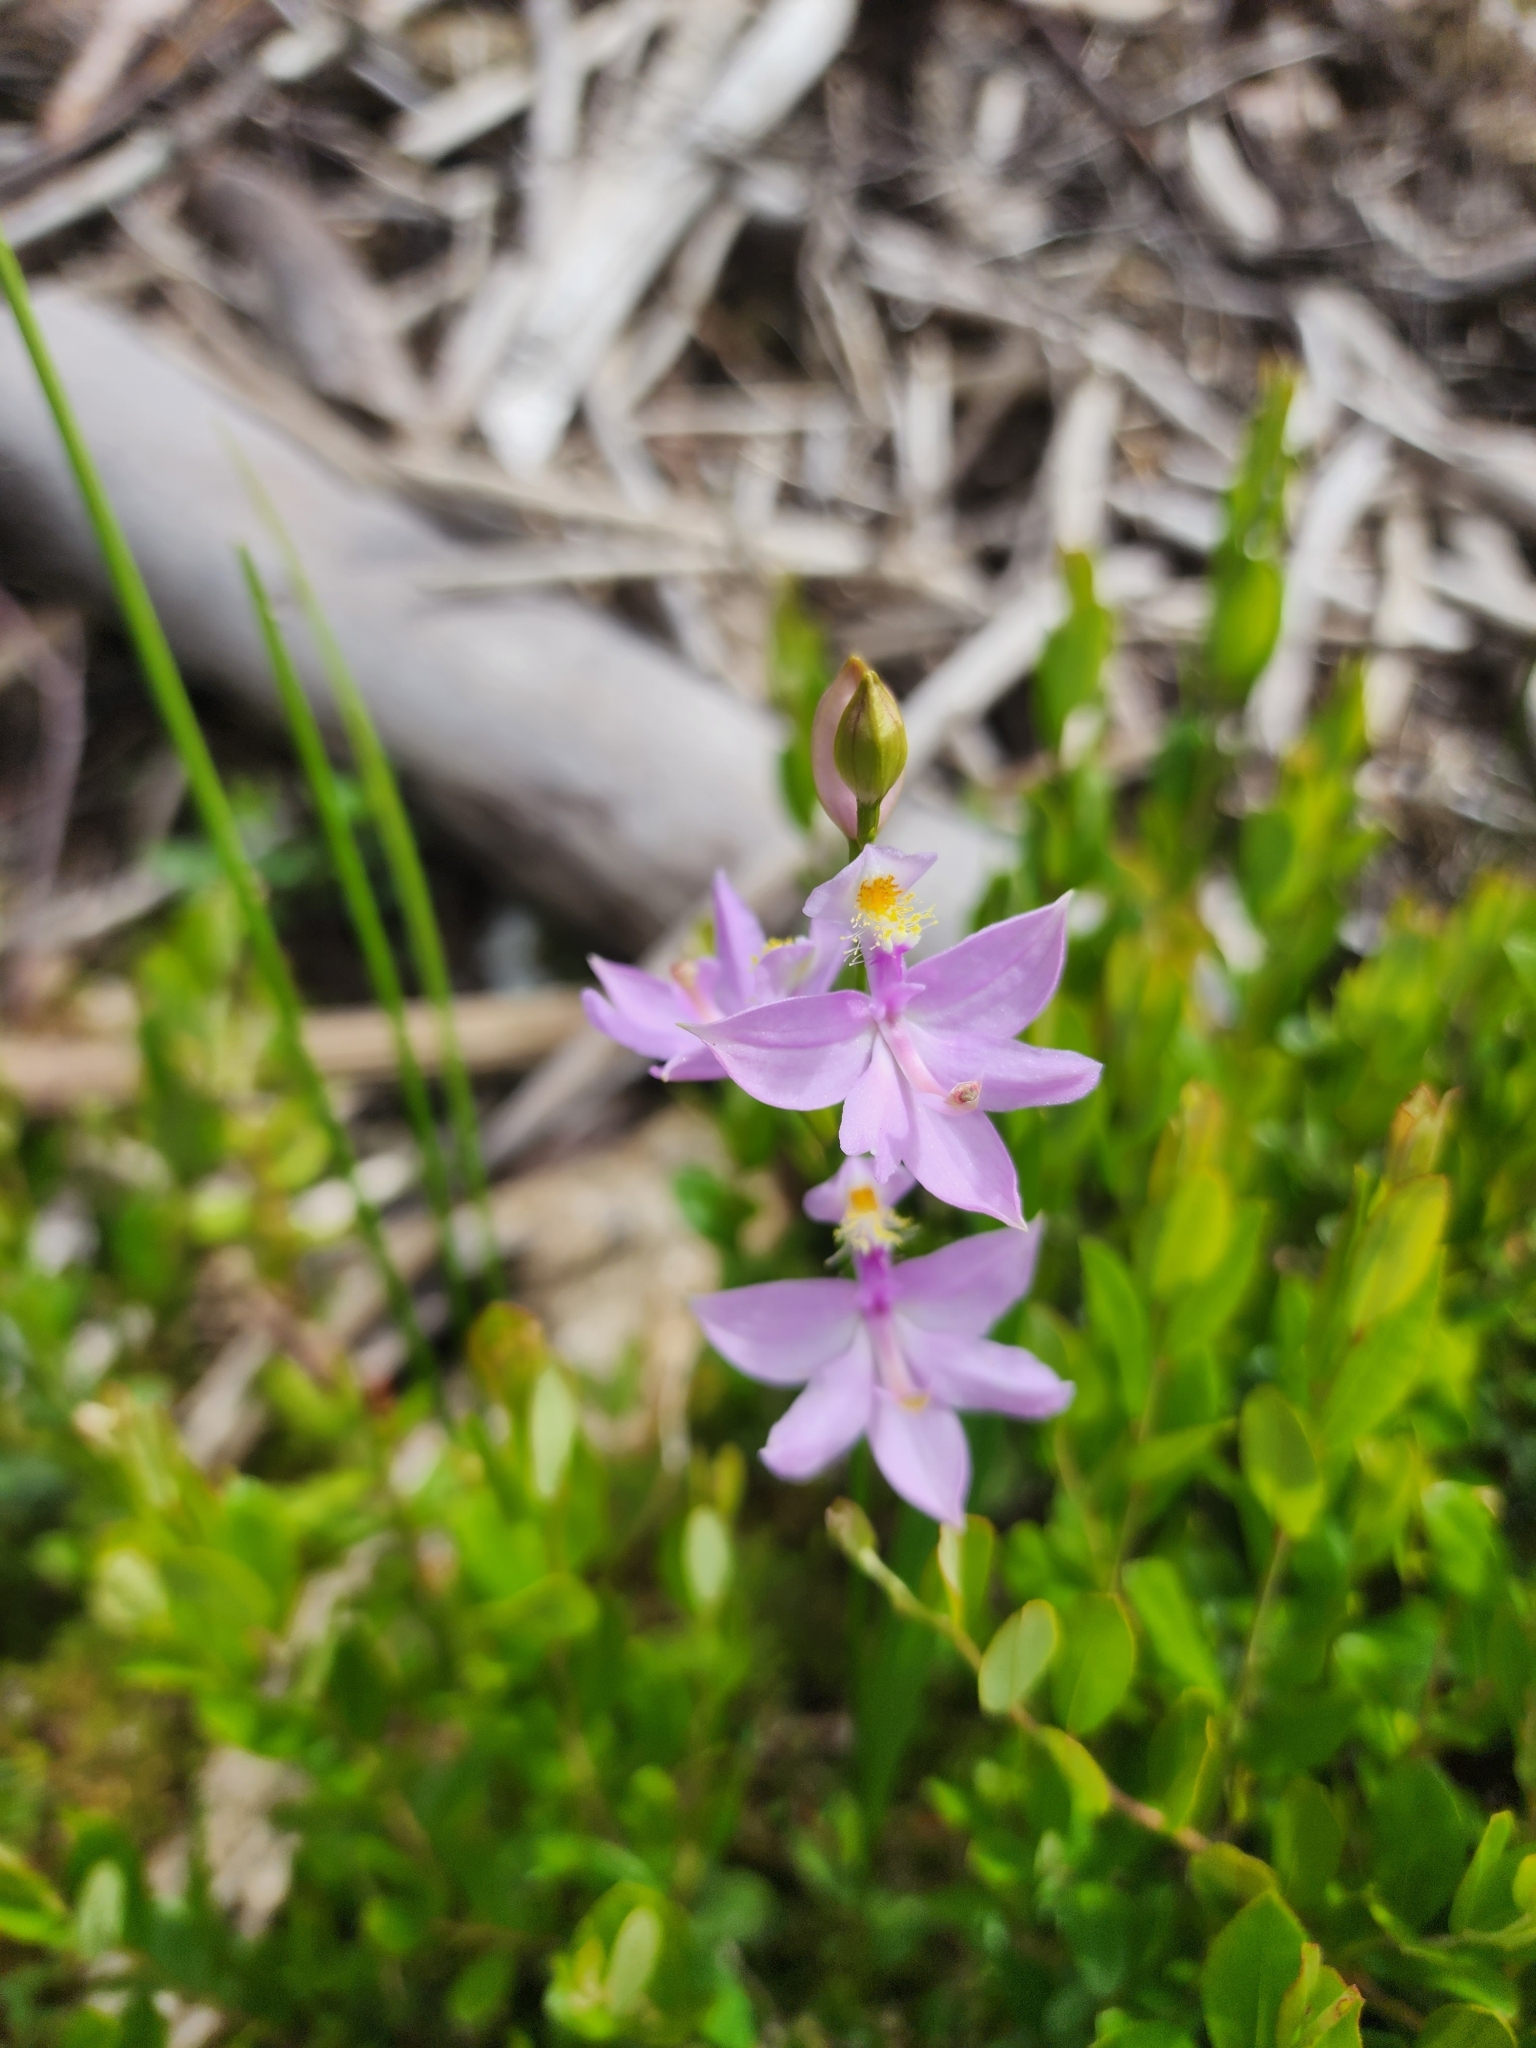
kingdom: Plantae
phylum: Tracheophyta
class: Liliopsida
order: Asparagales
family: Orchidaceae
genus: Calopogon
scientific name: Calopogon tuberosus
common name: Grass-pink
